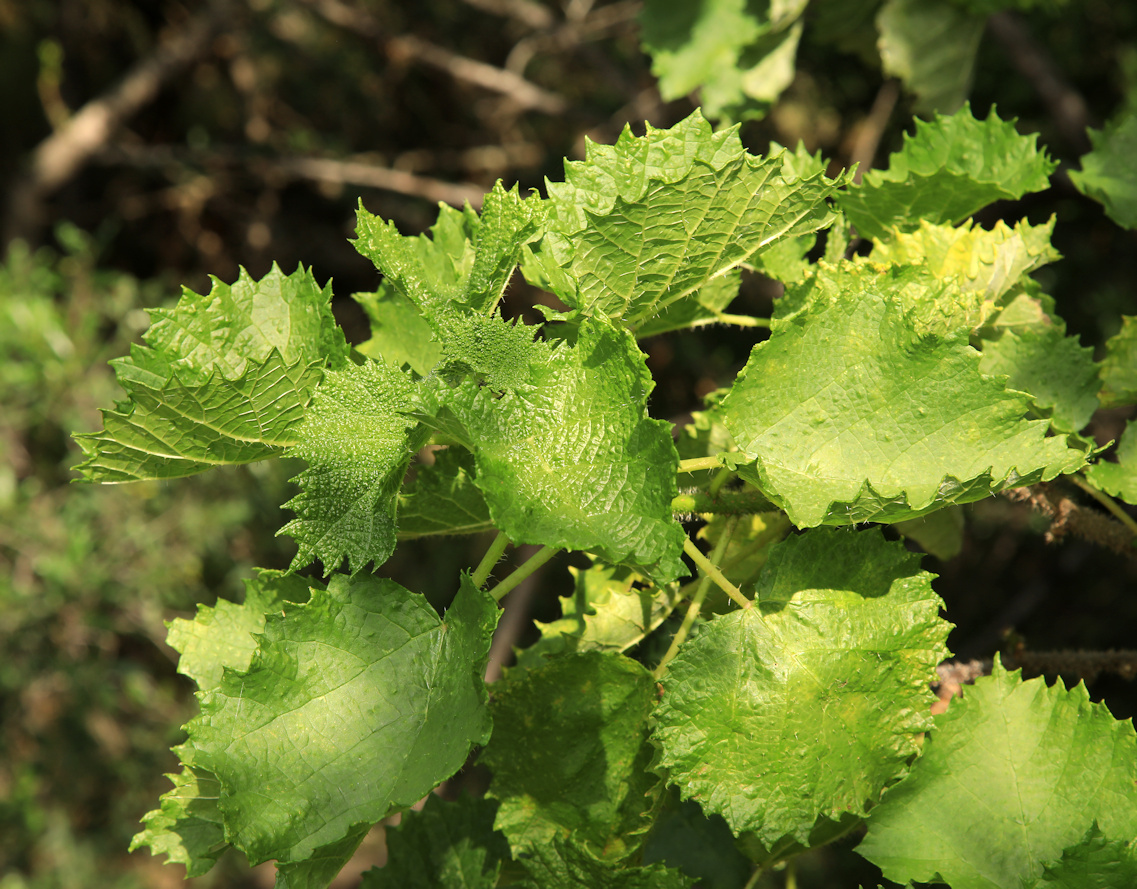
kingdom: Plantae
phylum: Tracheophyta
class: Magnoliopsida
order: Rosales
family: Urticaceae
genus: Obetia
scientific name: Obetia tenax
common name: Rock tree nettle
